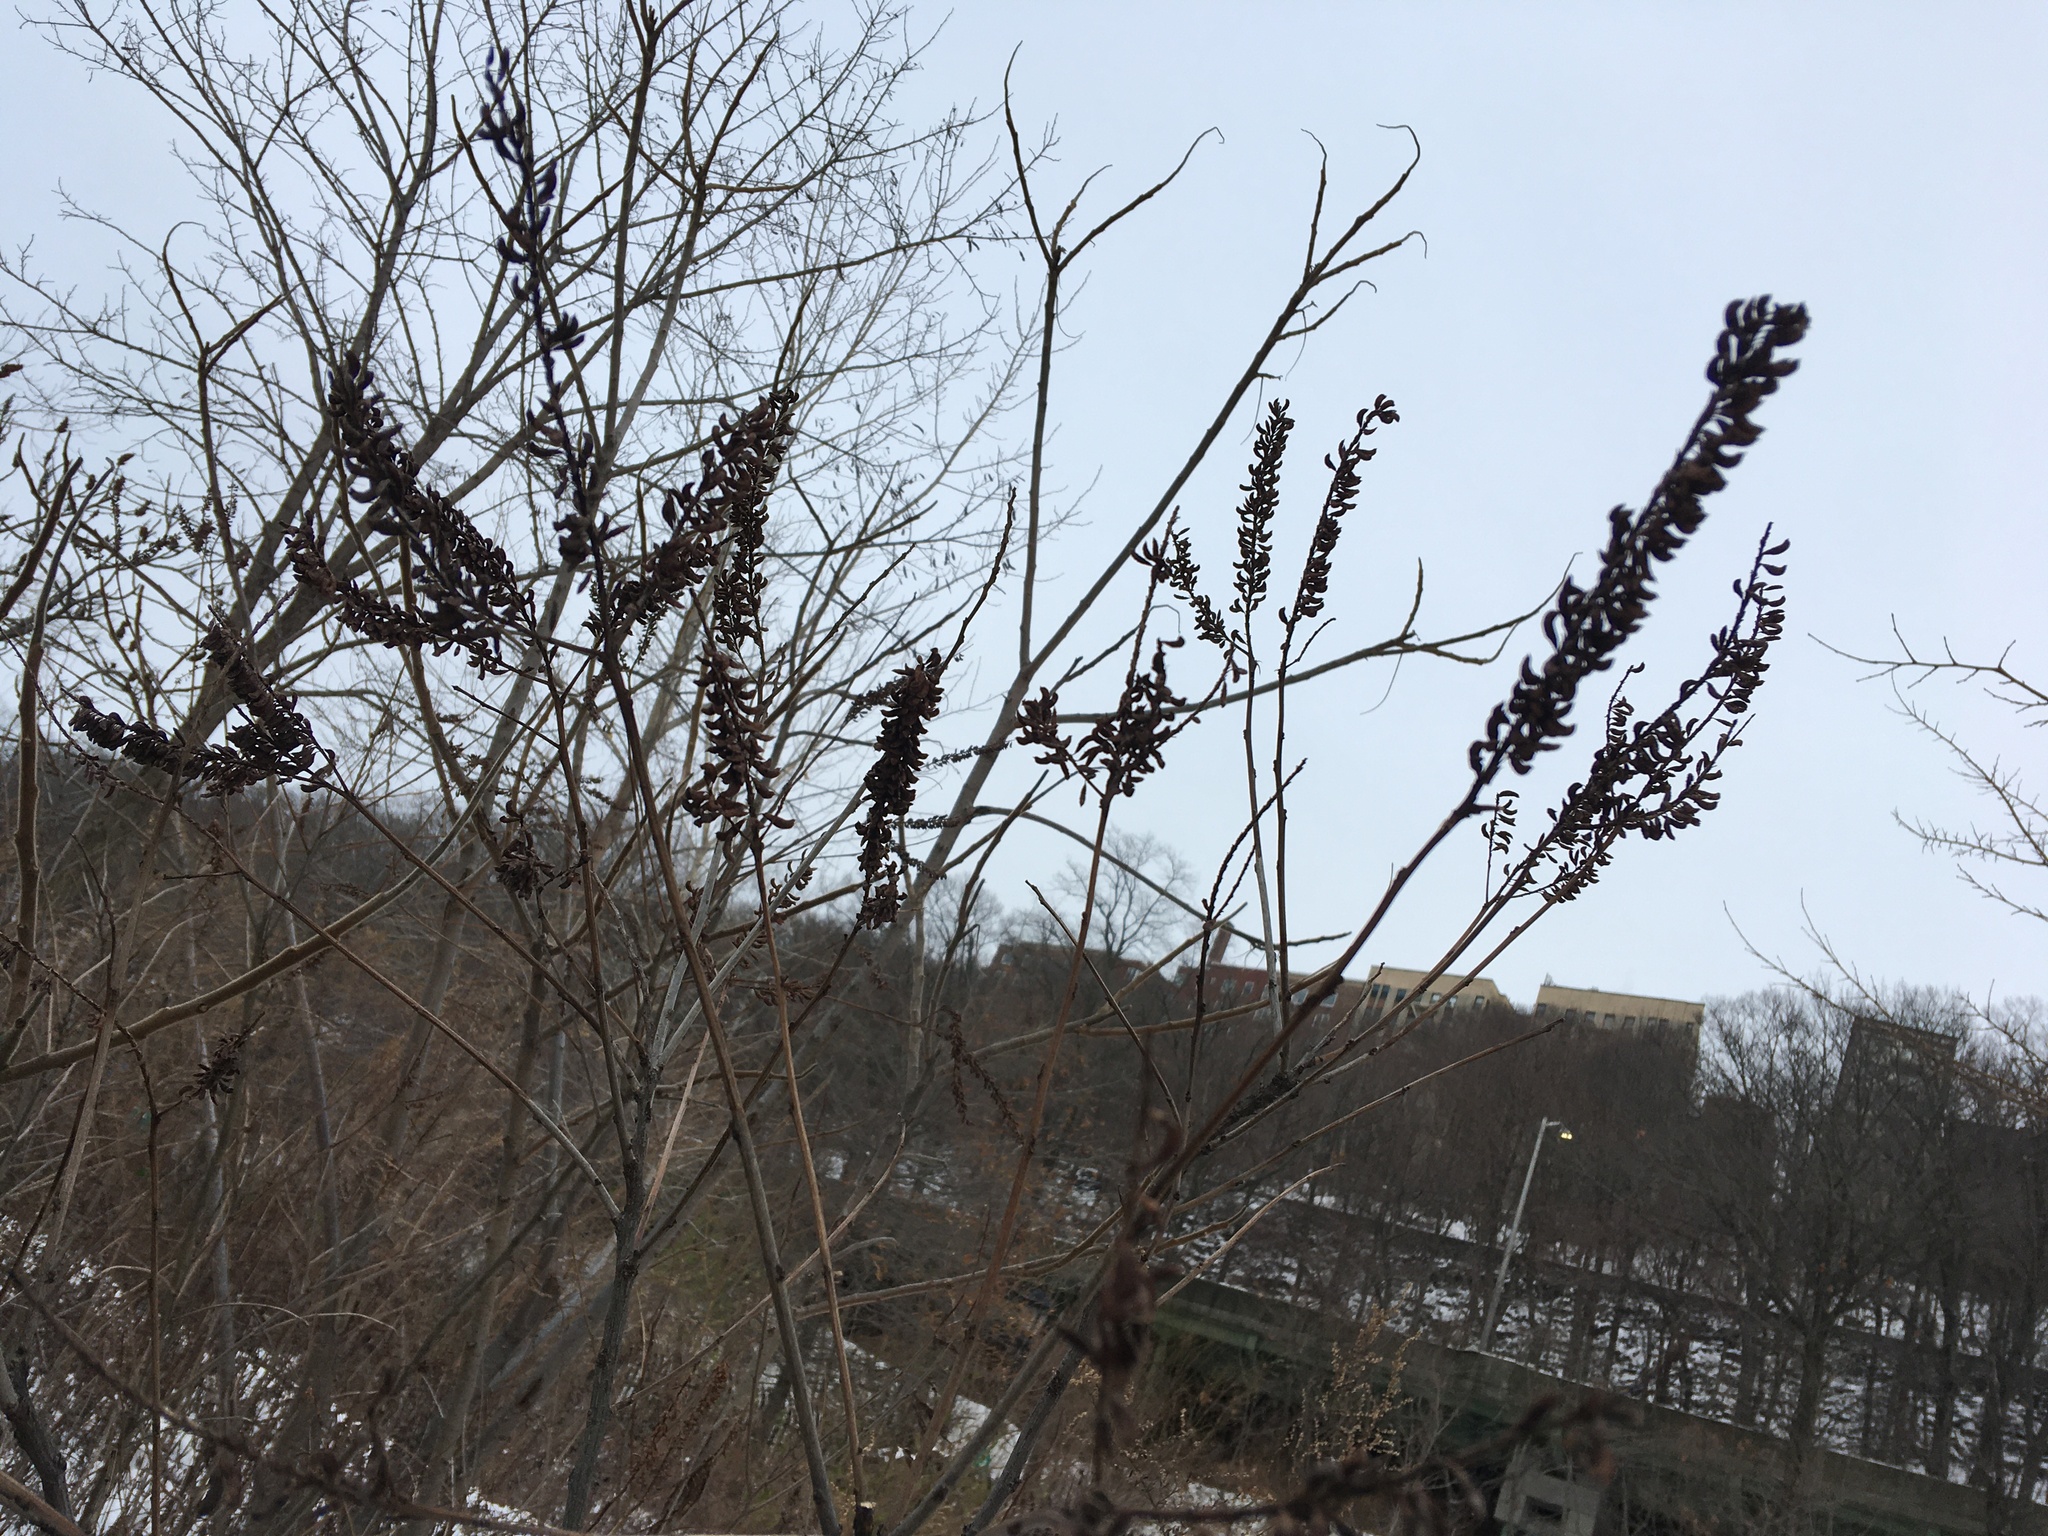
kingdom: Plantae
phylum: Tracheophyta
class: Magnoliopsida
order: Fabales
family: Fabaceae
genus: Amorpha
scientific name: Amorpha fruticosa
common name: False indigo
